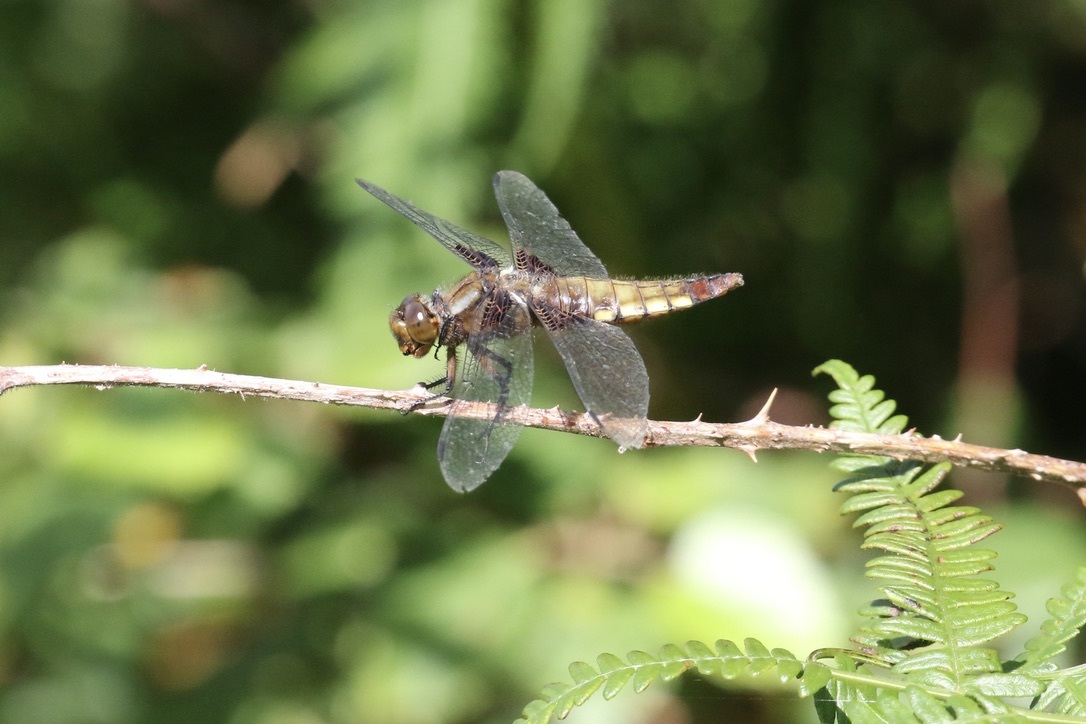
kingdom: Animalia
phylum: Arthropoda
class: Insecta
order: Odonata
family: Libellulidae
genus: Libellula
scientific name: Libellula depressa
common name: Broad-bodied chaser
